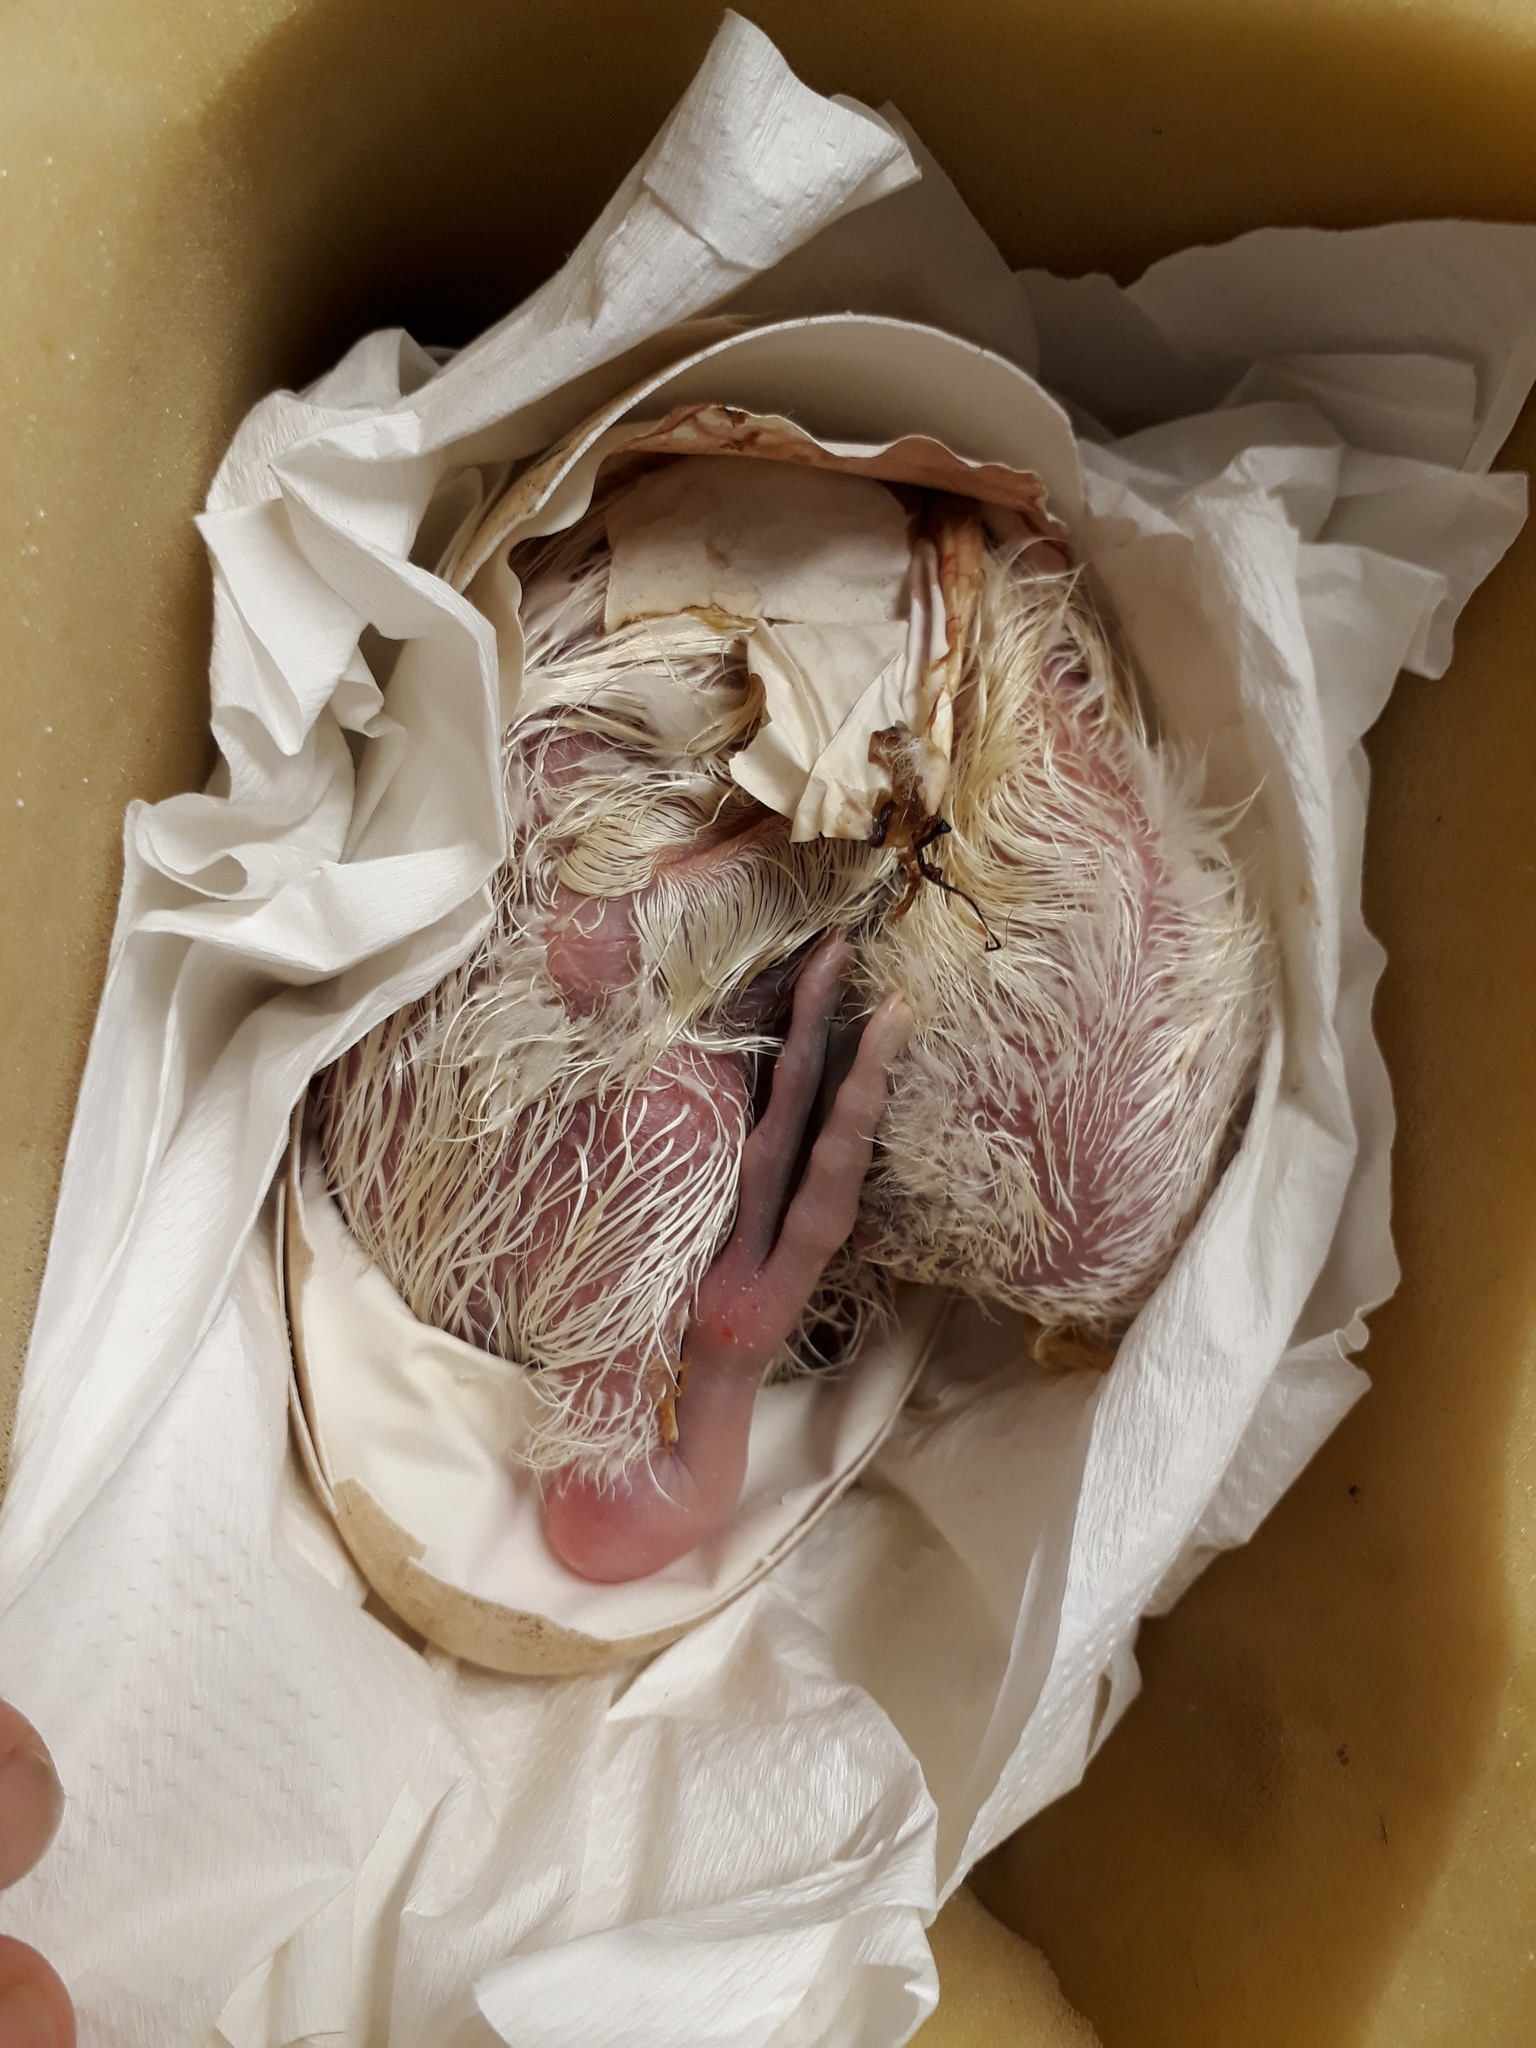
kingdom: Animalia
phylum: Chordata
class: Aves
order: Procellariiformes
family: Diomedeidae
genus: Diomedea
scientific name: Diomedea sanfordi
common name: Northern royal albatross
